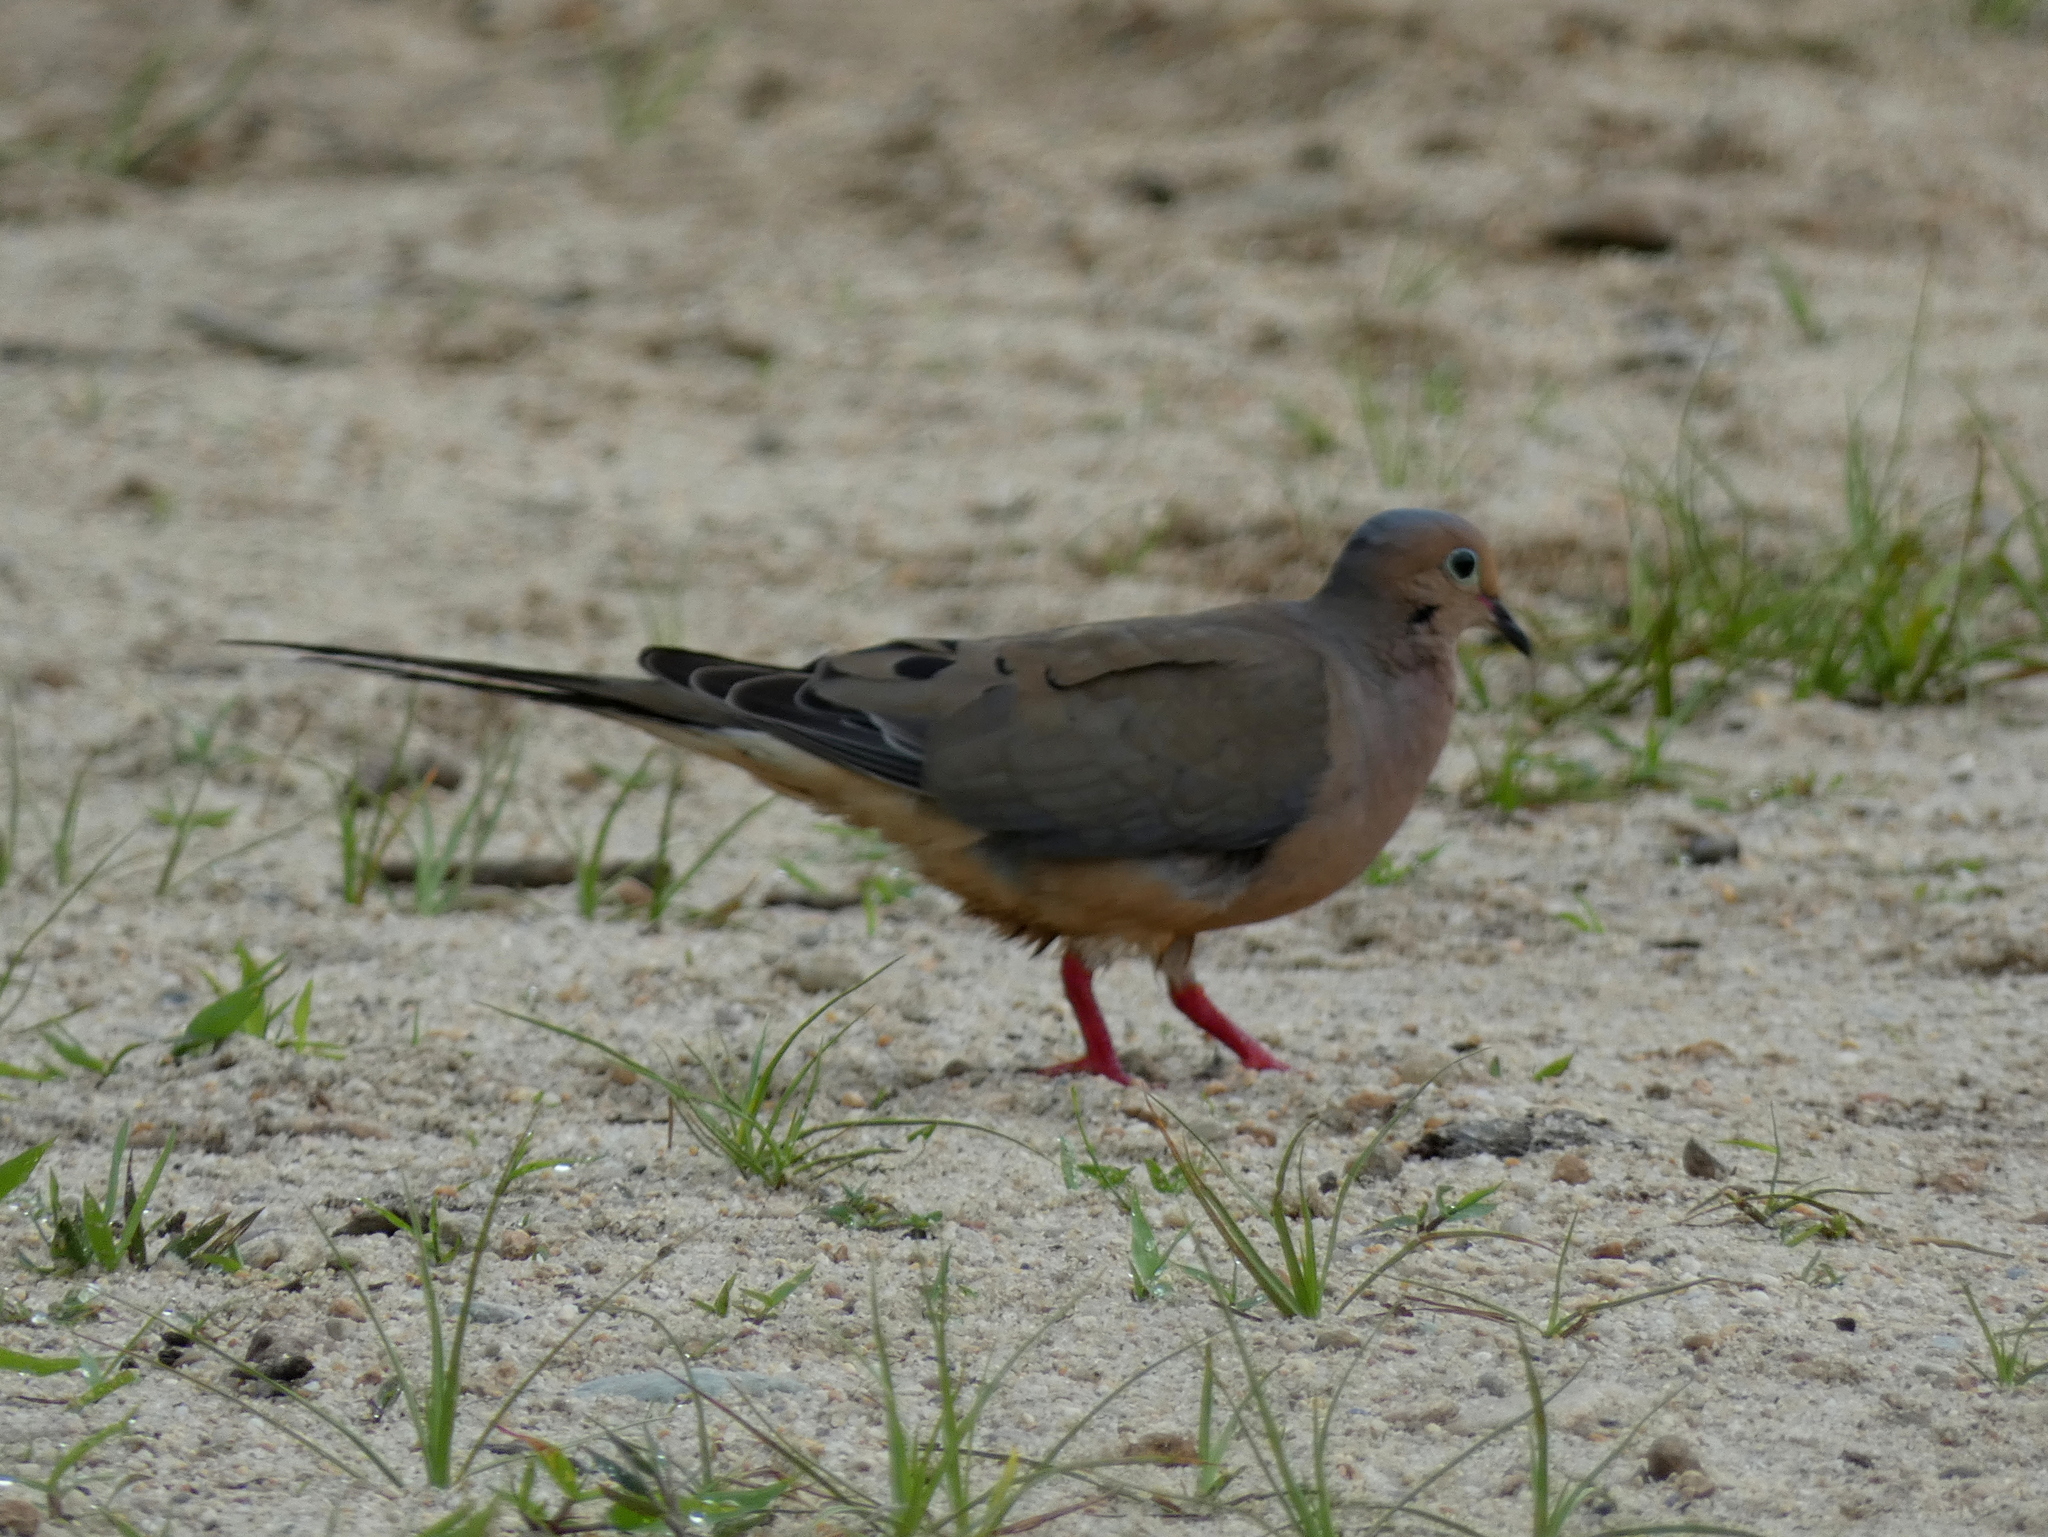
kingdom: Animalia
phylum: Chordata
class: Aves
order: Columbiformes
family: Columbidae
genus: Zenaida
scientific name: Zenaida macroura
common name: Mourning dove
